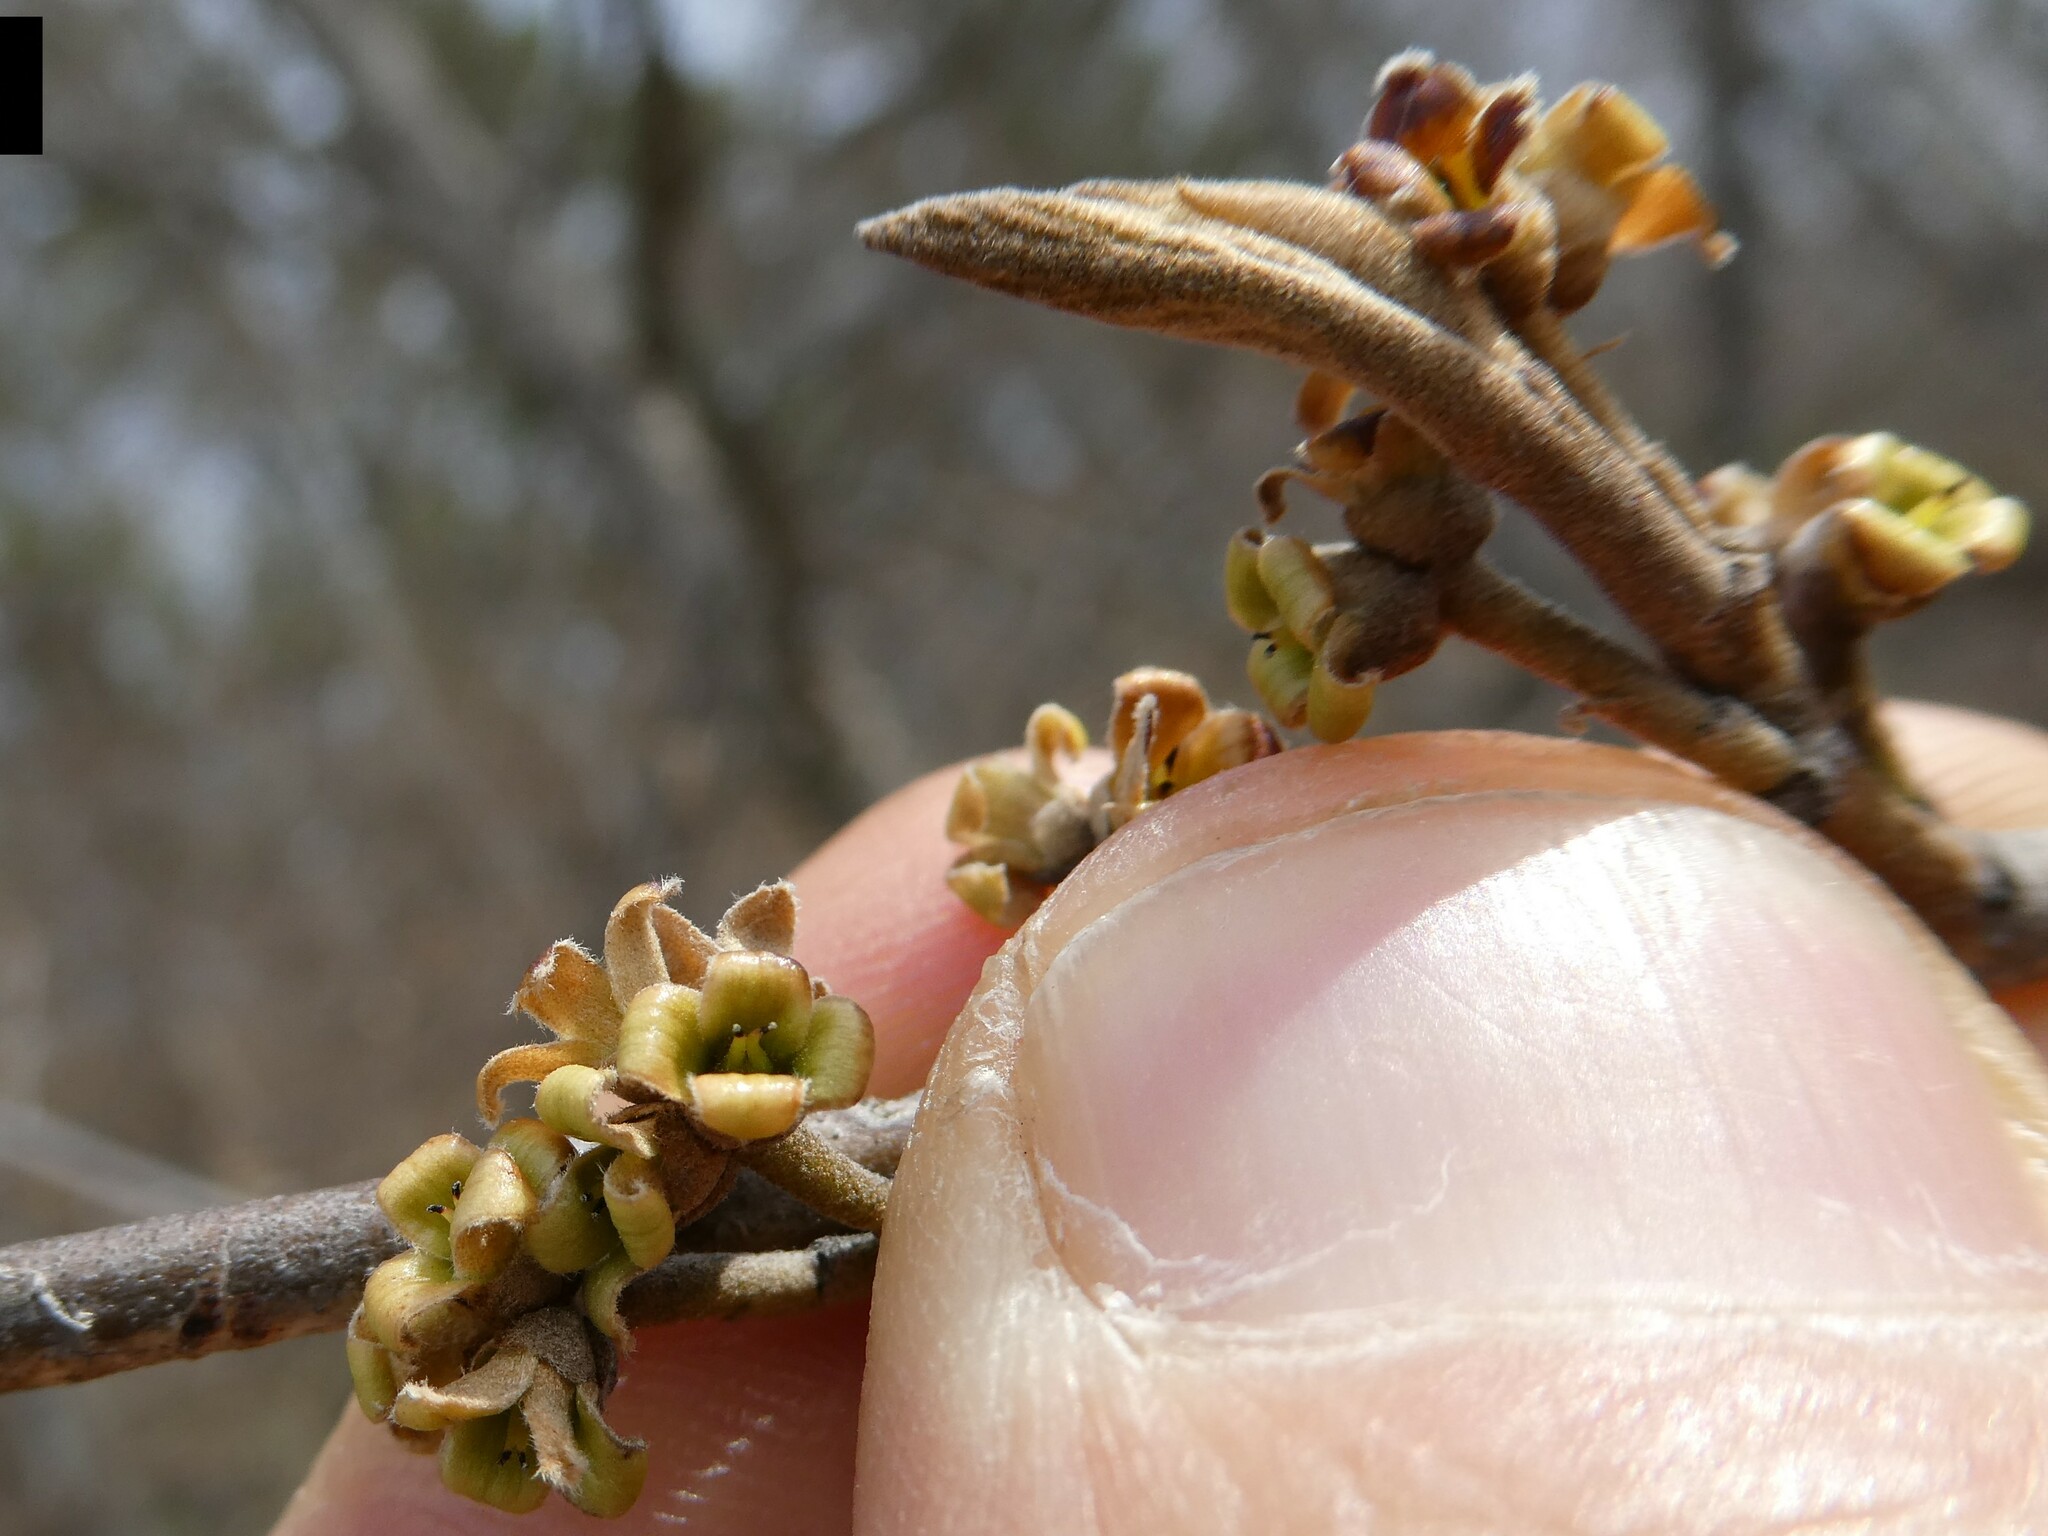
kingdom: Plantae
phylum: Tracheophyta
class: Magnoliopsida
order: Saxifragales
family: Hamamelidaceae
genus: Hamamelis
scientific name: Hamamelis virginiana
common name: Witch-hazel
